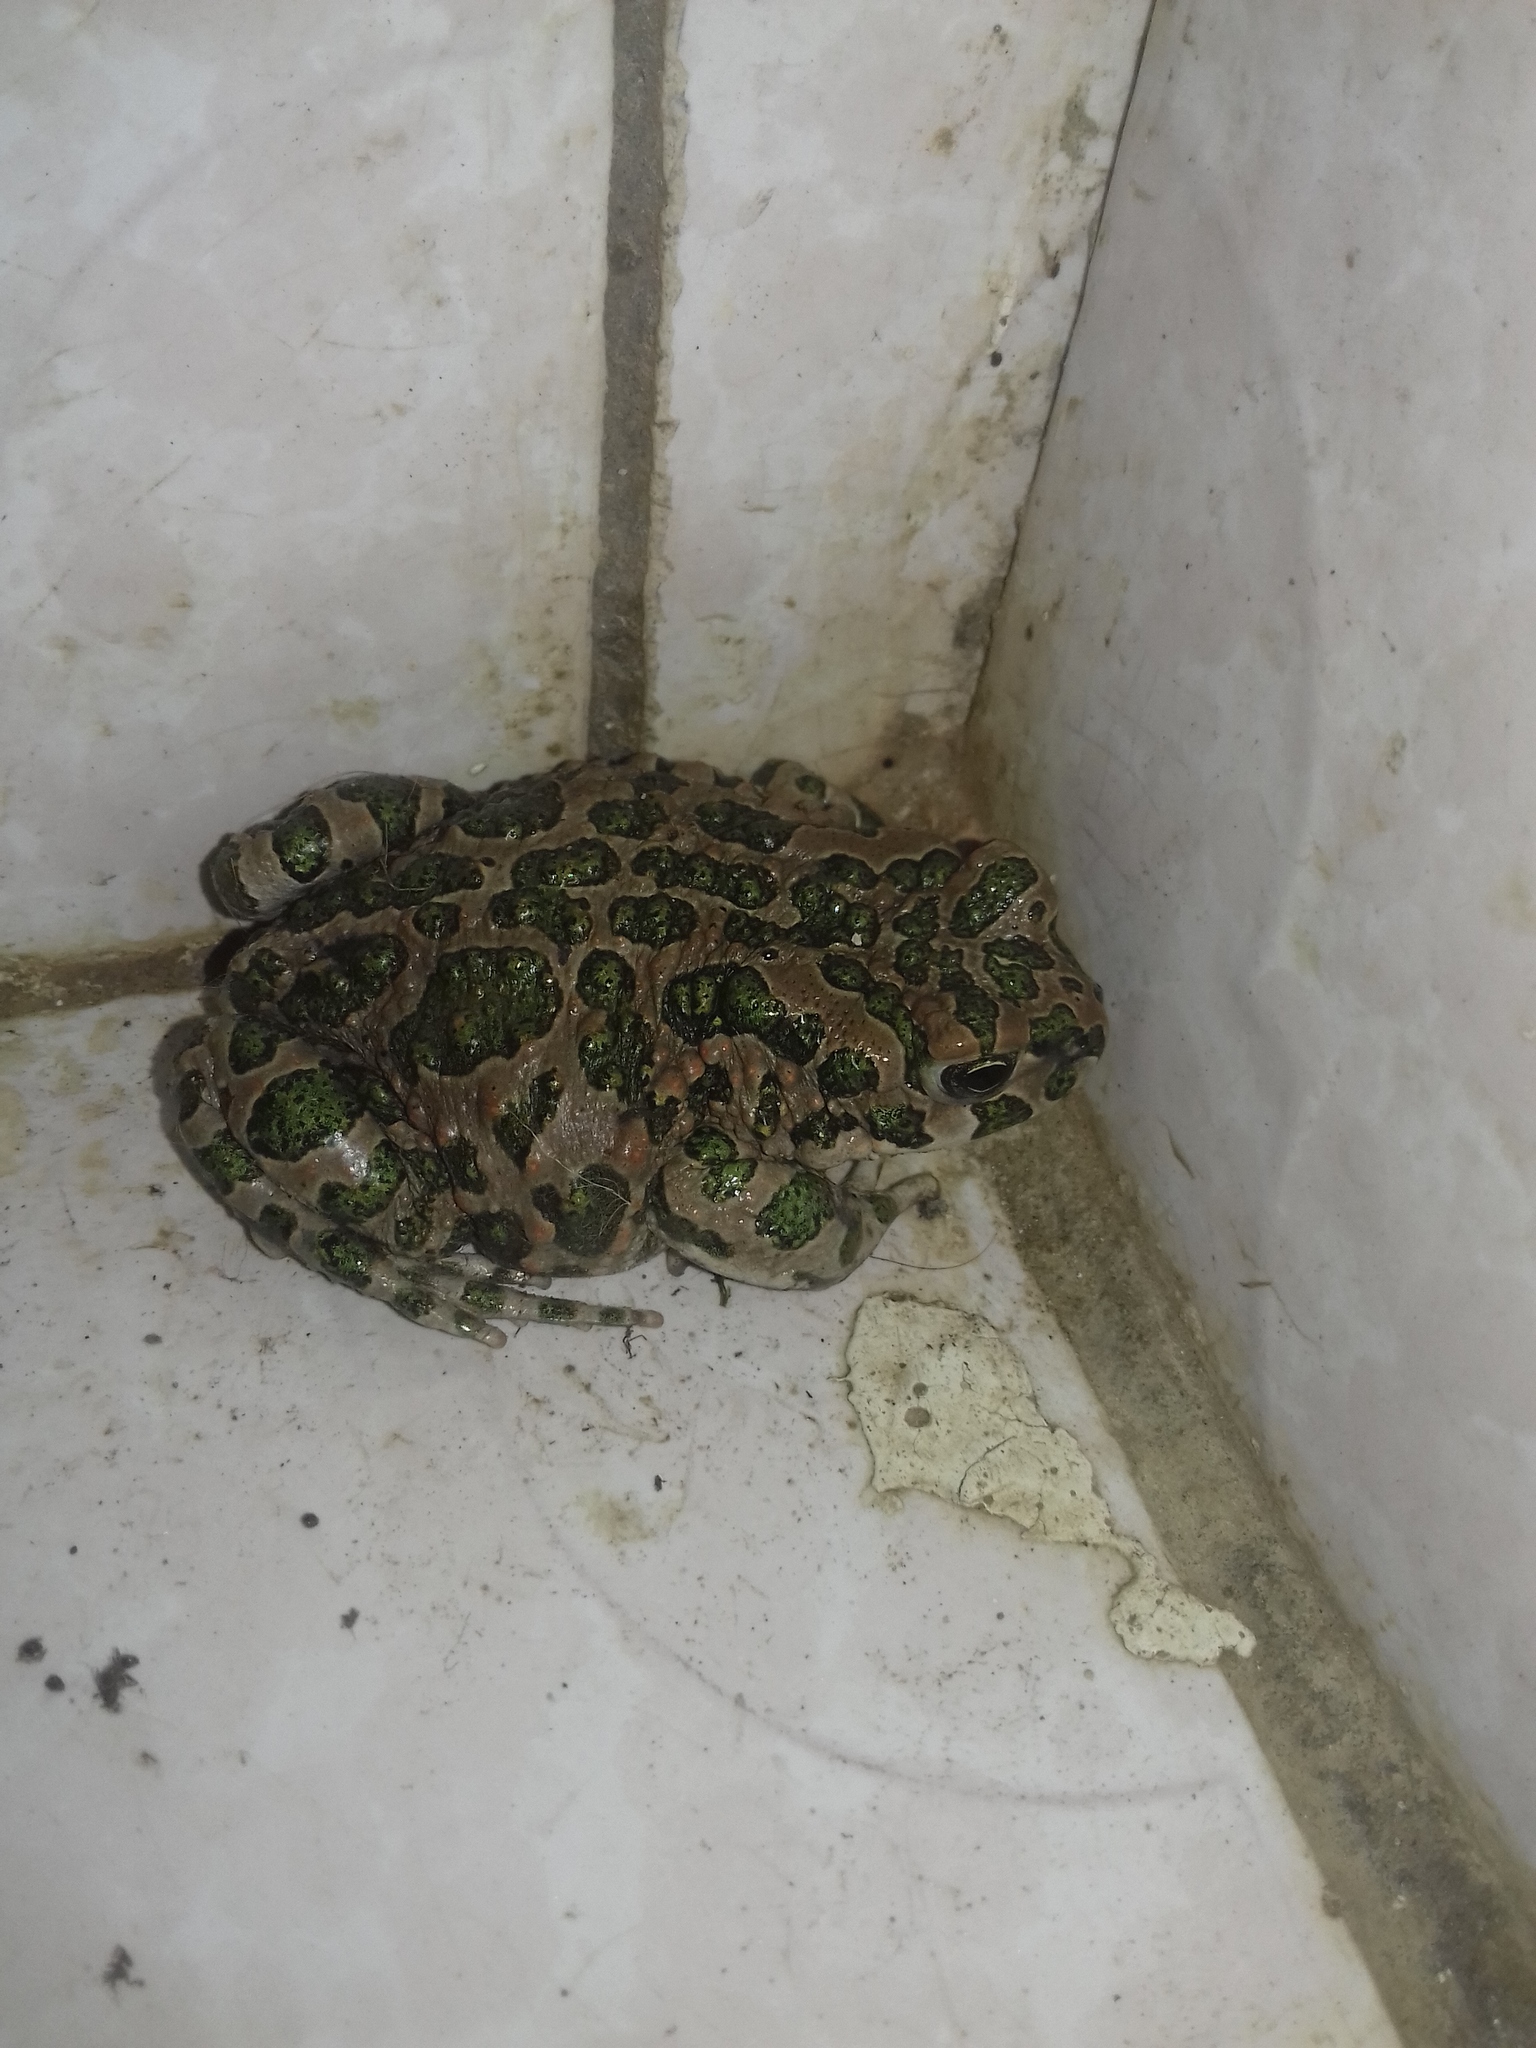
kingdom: Animalia
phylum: Chordata
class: Amphibia
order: Anura
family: Bufonidae
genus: Bufotes
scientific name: Bufotes viridis
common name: European green toad
